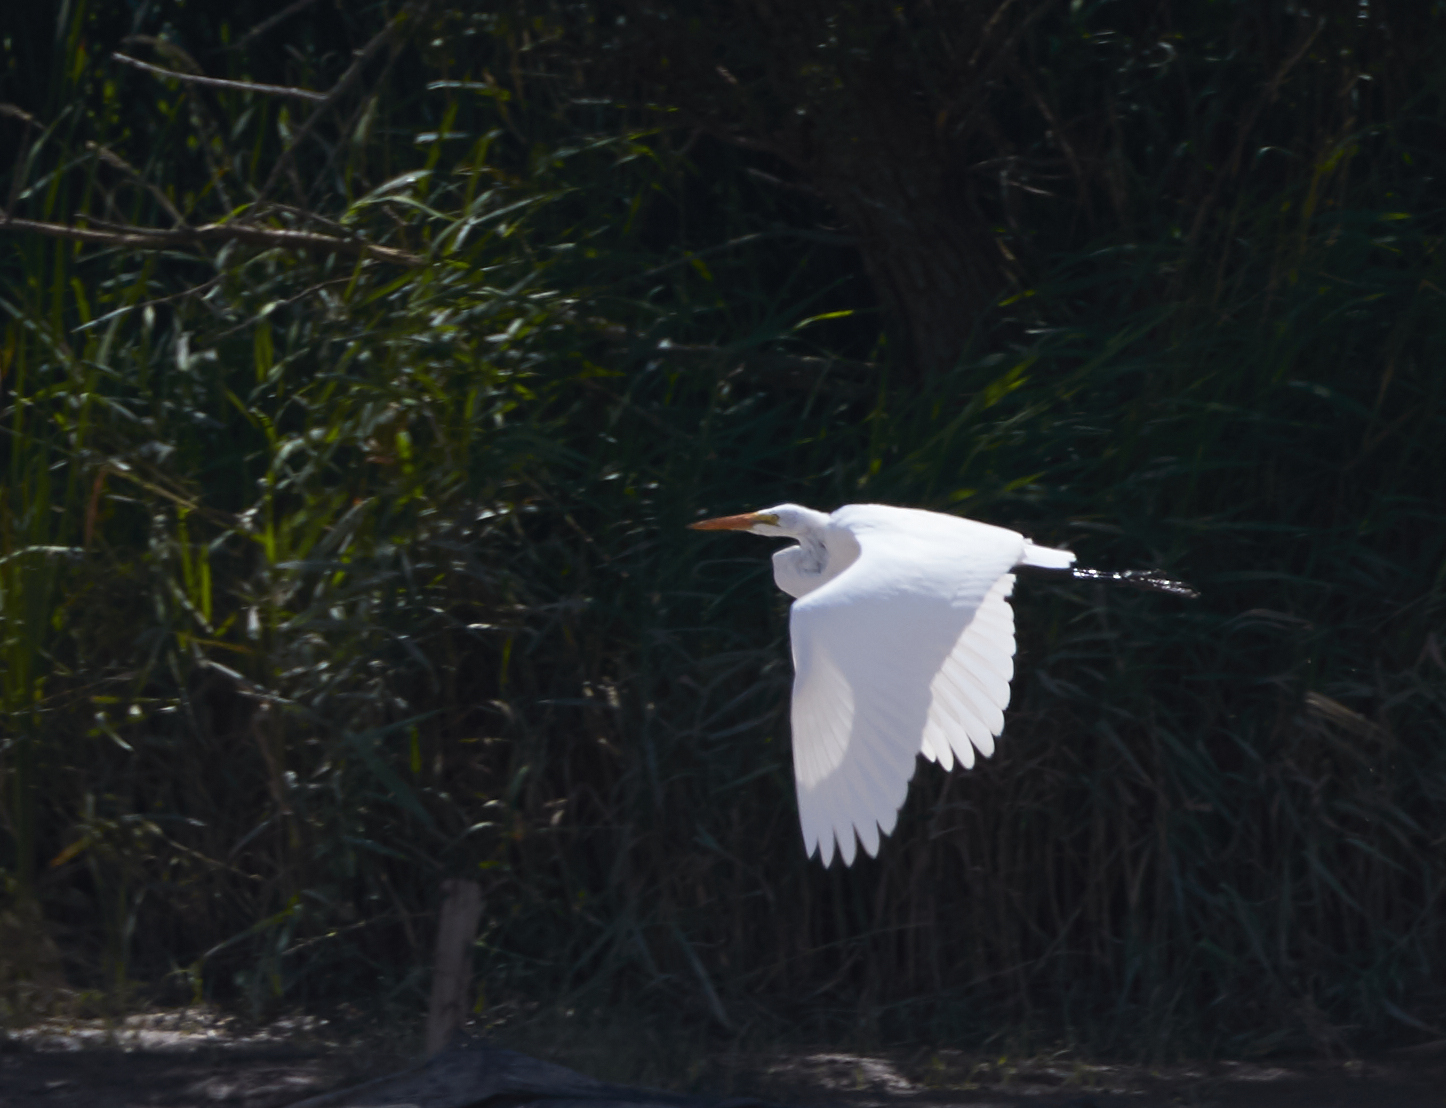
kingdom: Animalia
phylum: Chordata
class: Aves
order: Pelecaniformes
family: Ardeidae
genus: Ardea
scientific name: Ardea alba
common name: Great egret
